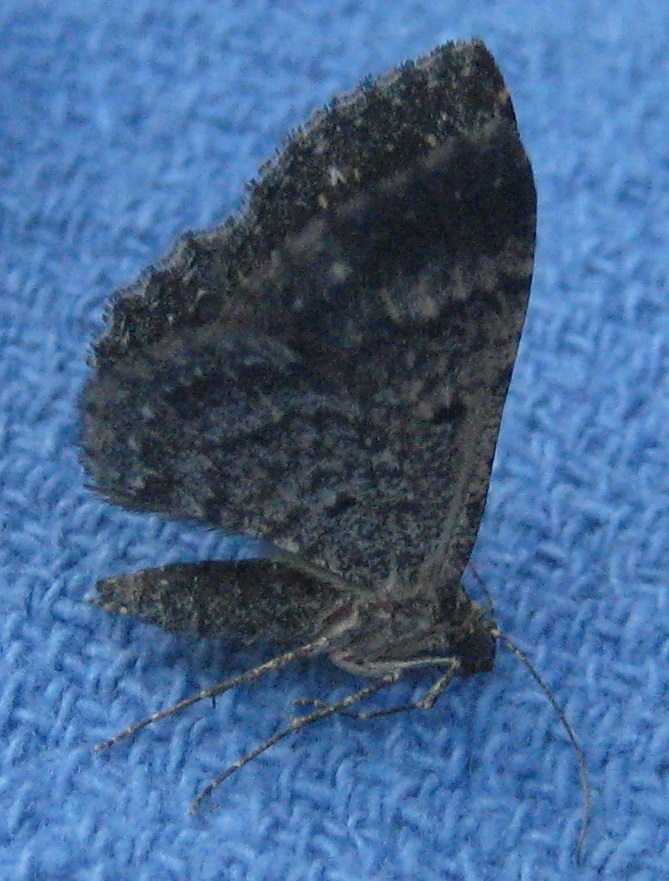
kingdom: Animalia
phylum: Arthropoda
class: Insecta
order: Lepidoptera
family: Geometridae
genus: Disclisioprocta
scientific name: Disclisioprocta stellata
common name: Somber carpet
